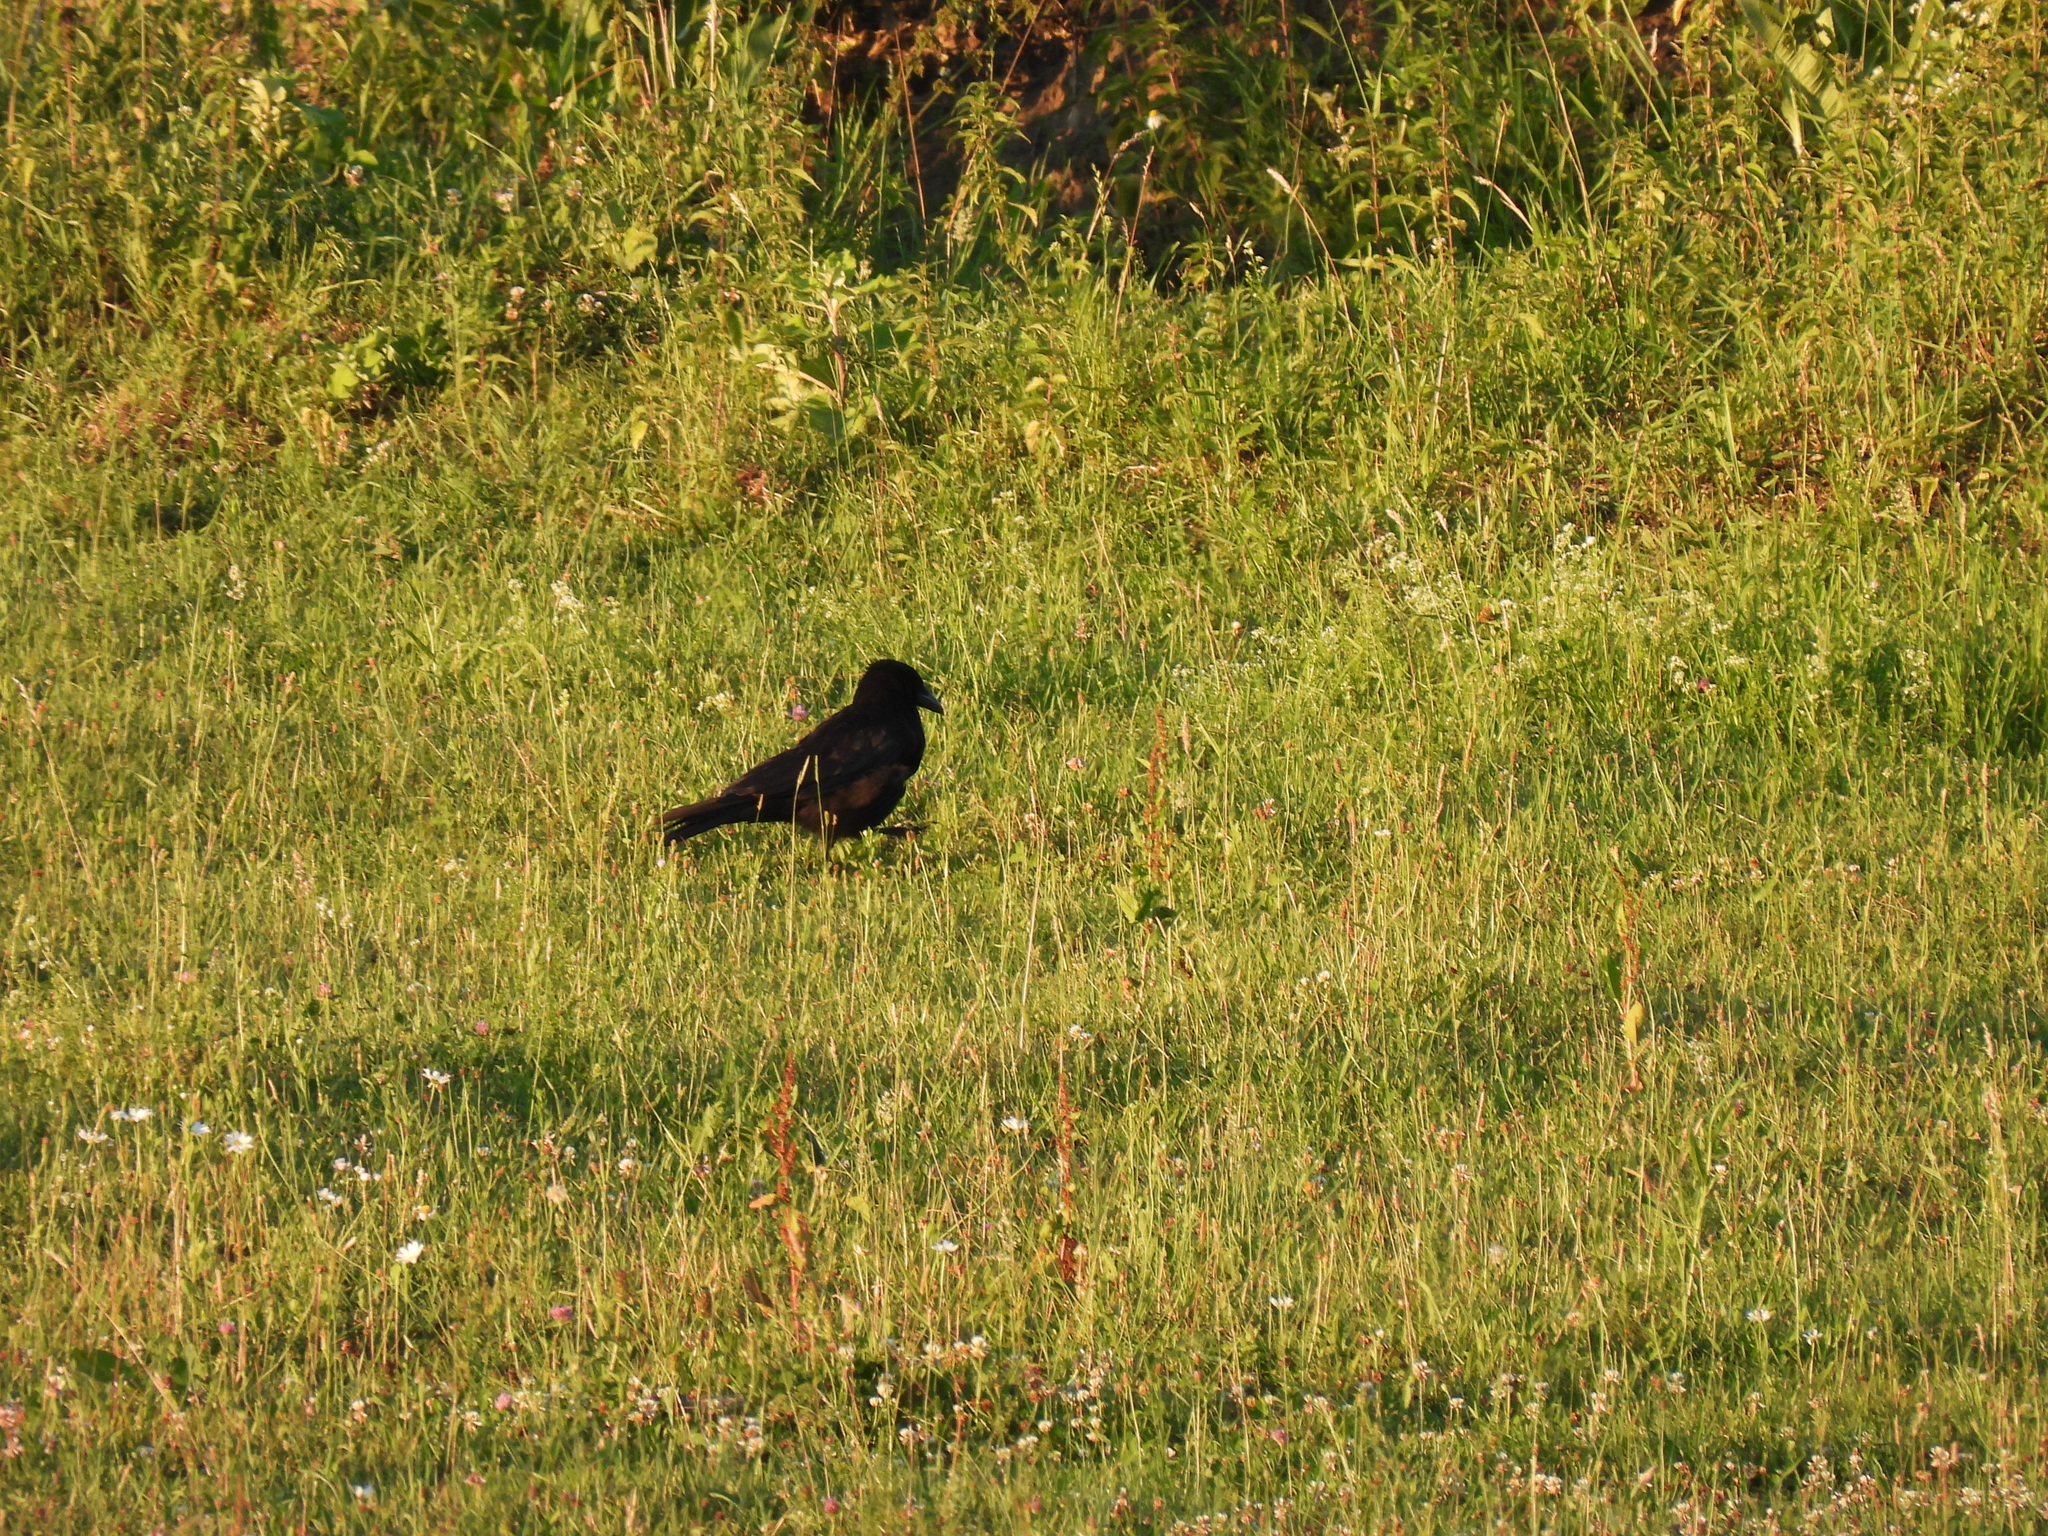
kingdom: Animalia
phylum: Chordata
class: Aves
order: Passeriformes
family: Corvidae
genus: Corvus
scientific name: Corvus corone
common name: Carrion crow
